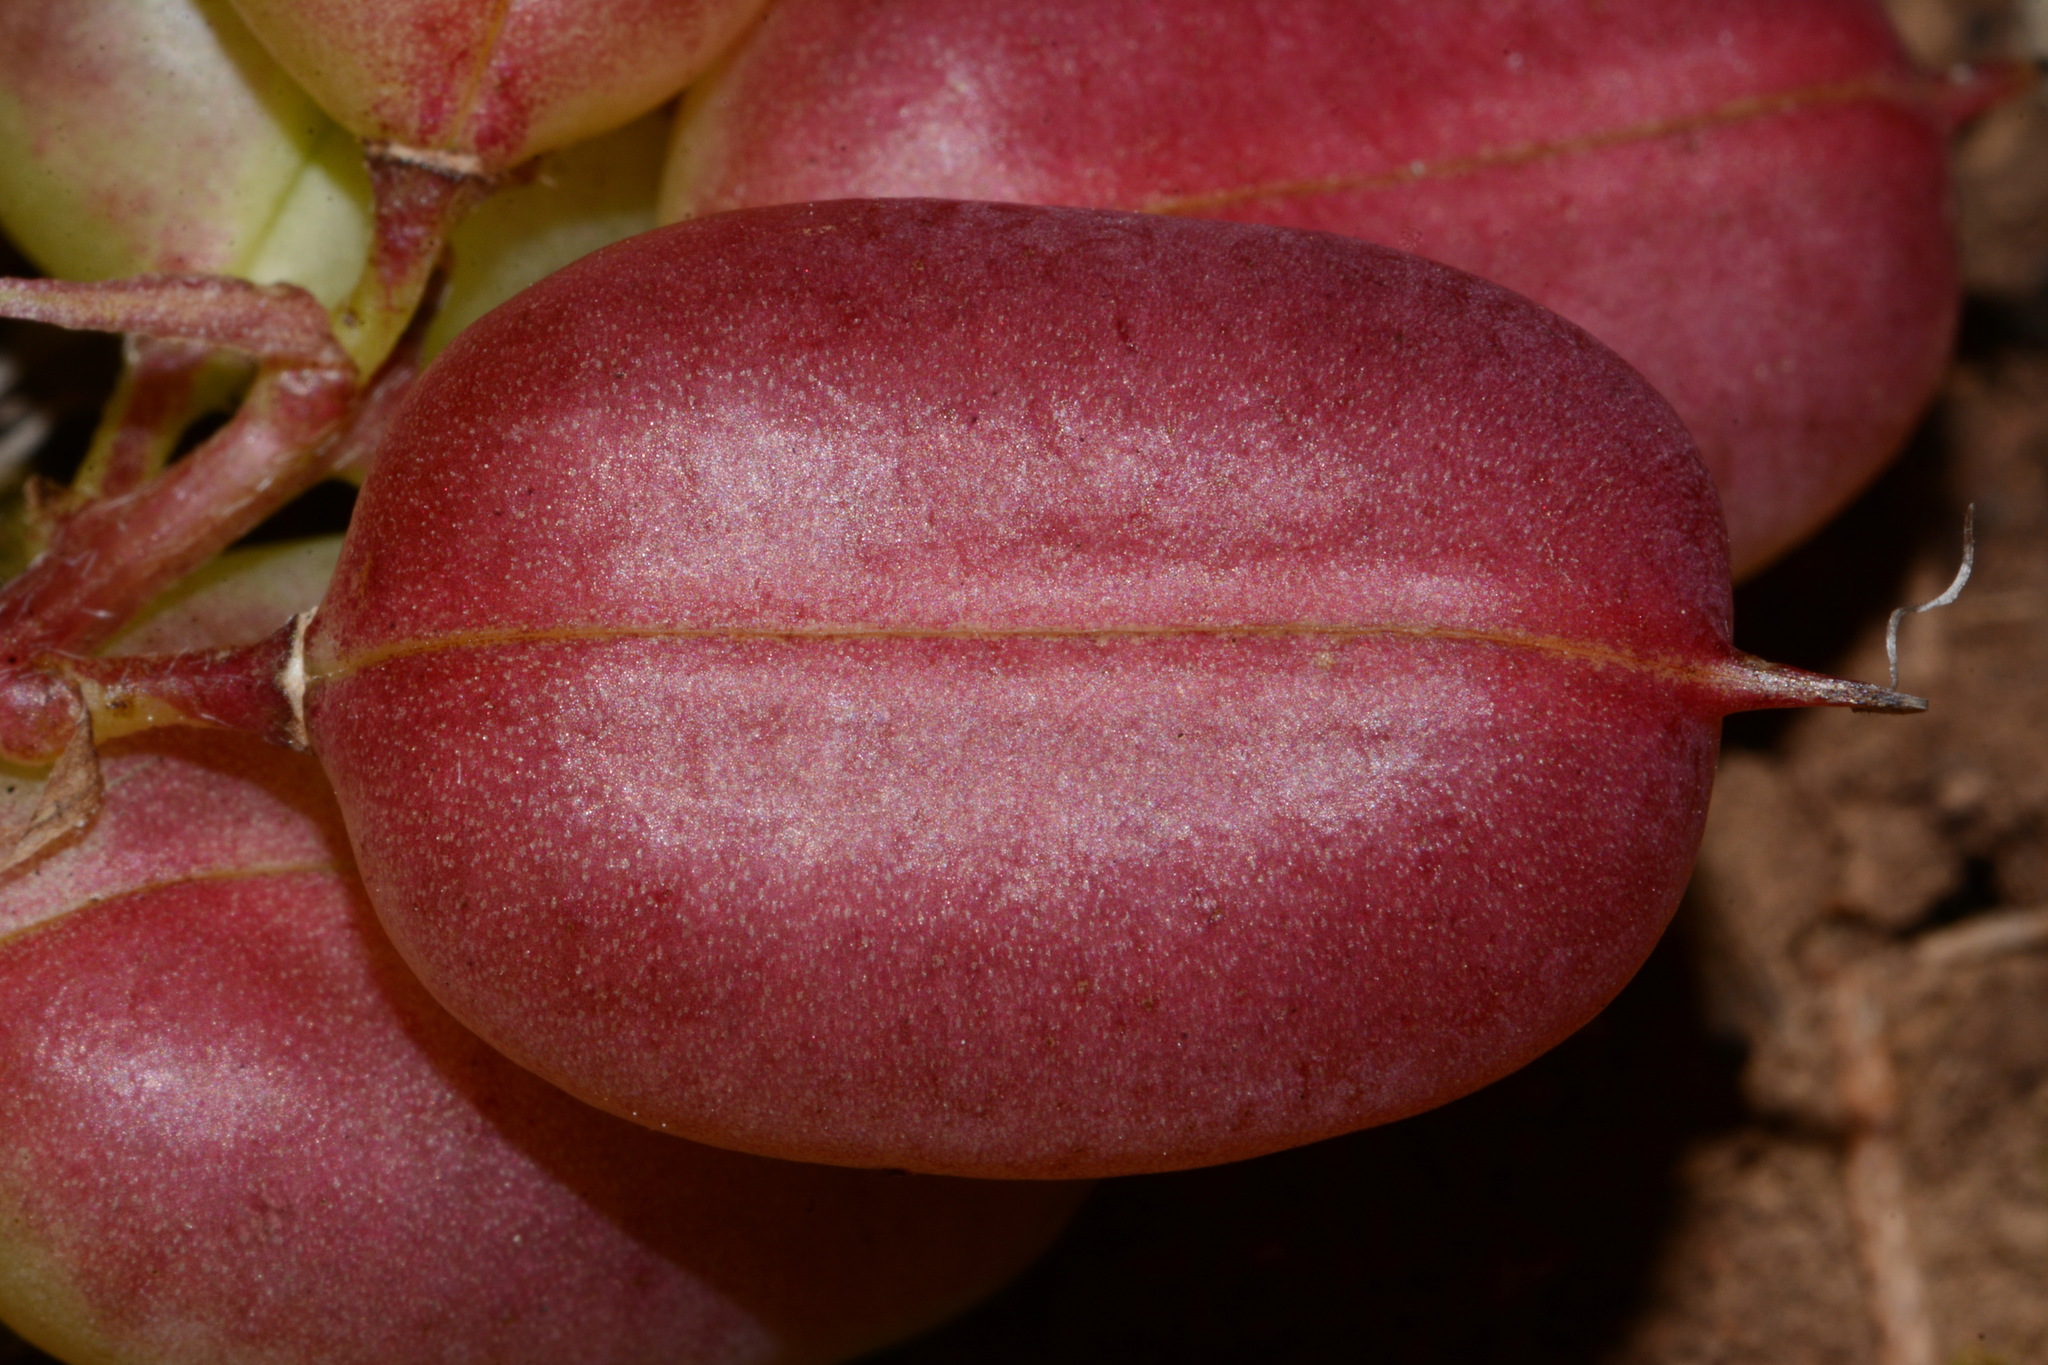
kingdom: Plantae
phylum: Tracheophyta
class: Magnoliopsida
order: Fabales
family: Fabaceae
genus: Astragalus
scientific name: Astragalus bibullatus
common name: Pyne's ground-plum
